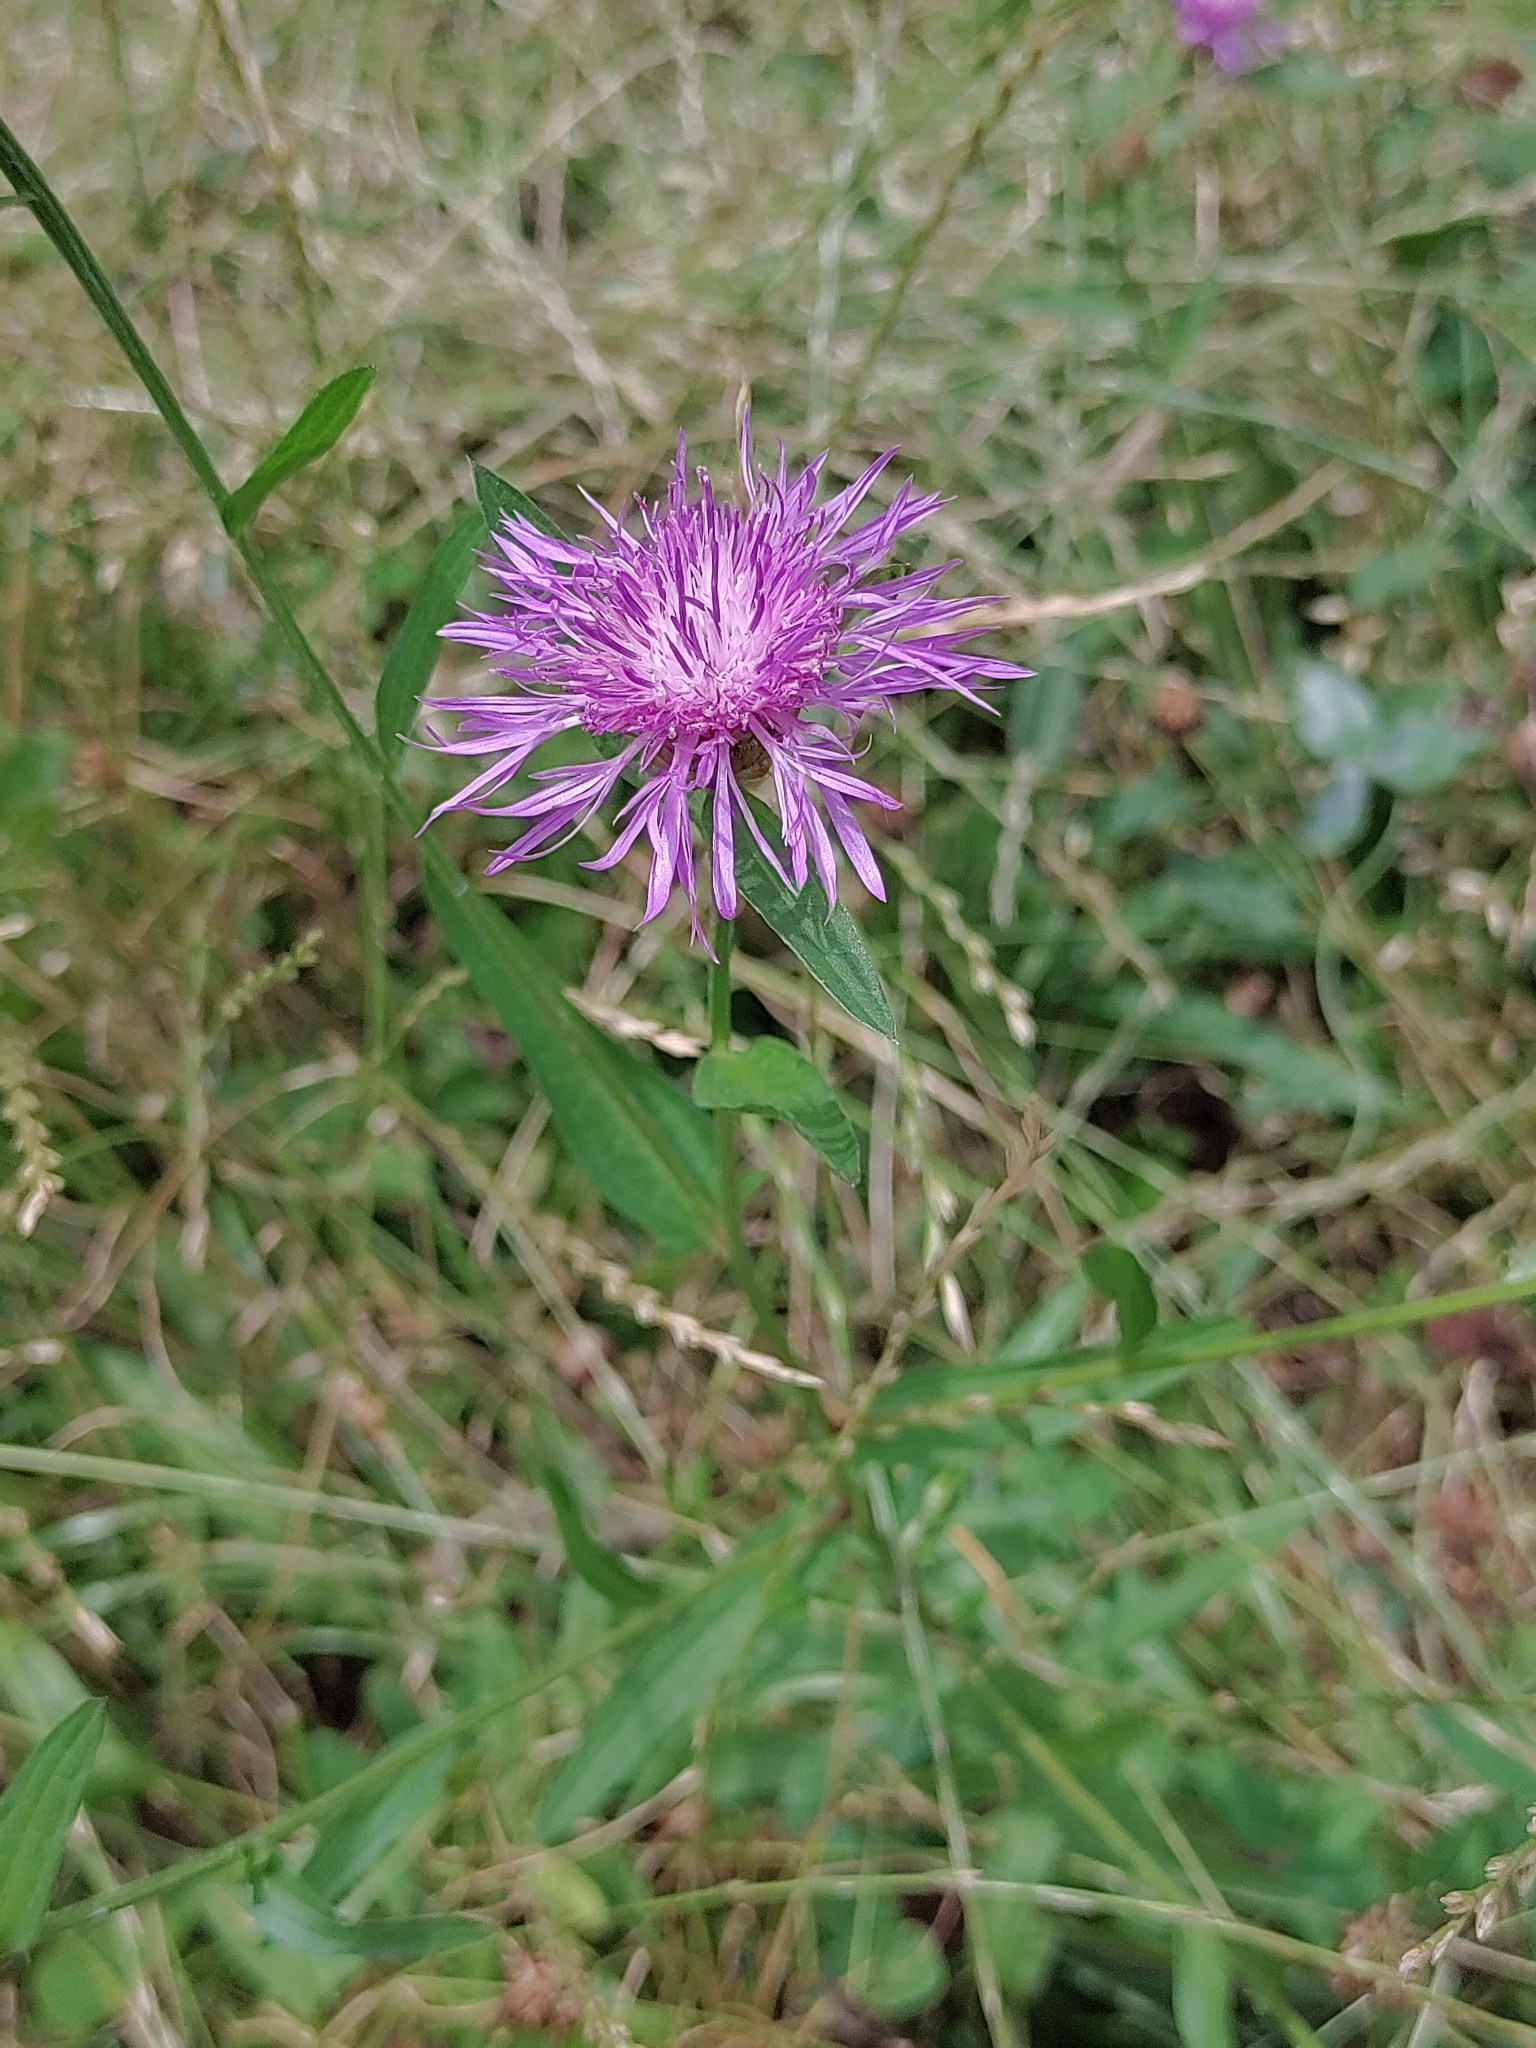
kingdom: Plantae
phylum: Tracheophyta
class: Magnoliopsida
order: Asterales
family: Asteraceae
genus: Centaurea
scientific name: Centaurea jacea
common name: Brown knapweed
